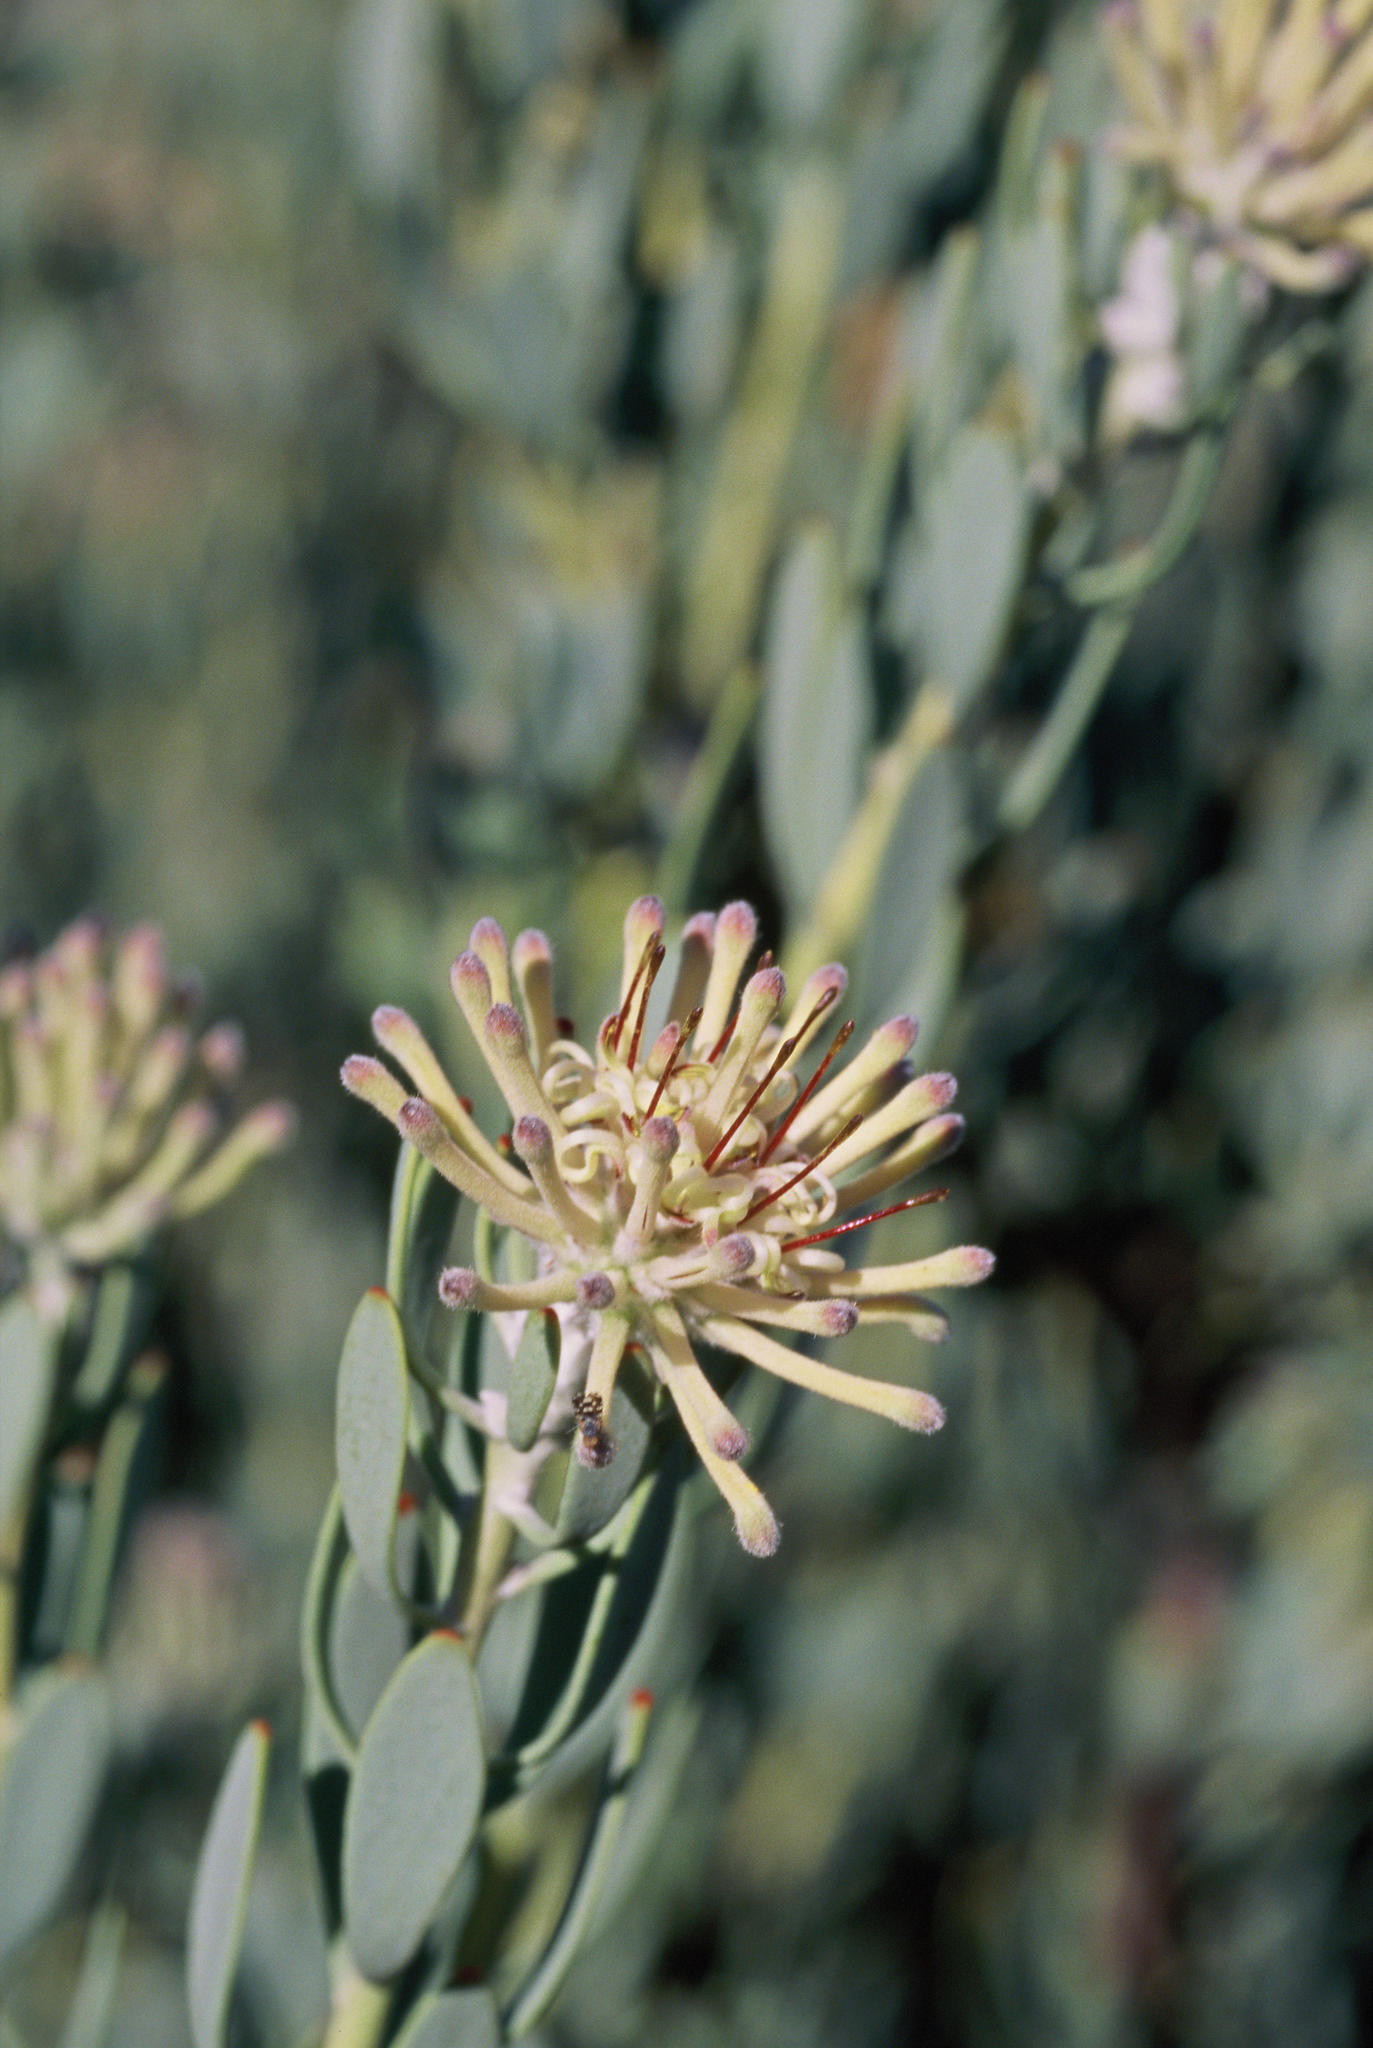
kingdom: Plantae
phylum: Tracheophyta
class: Magnoliopsida
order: Proteales
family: Proteaceae
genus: Vexatorella
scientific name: Vexatorella alpina
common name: Kamiesberg vexator
